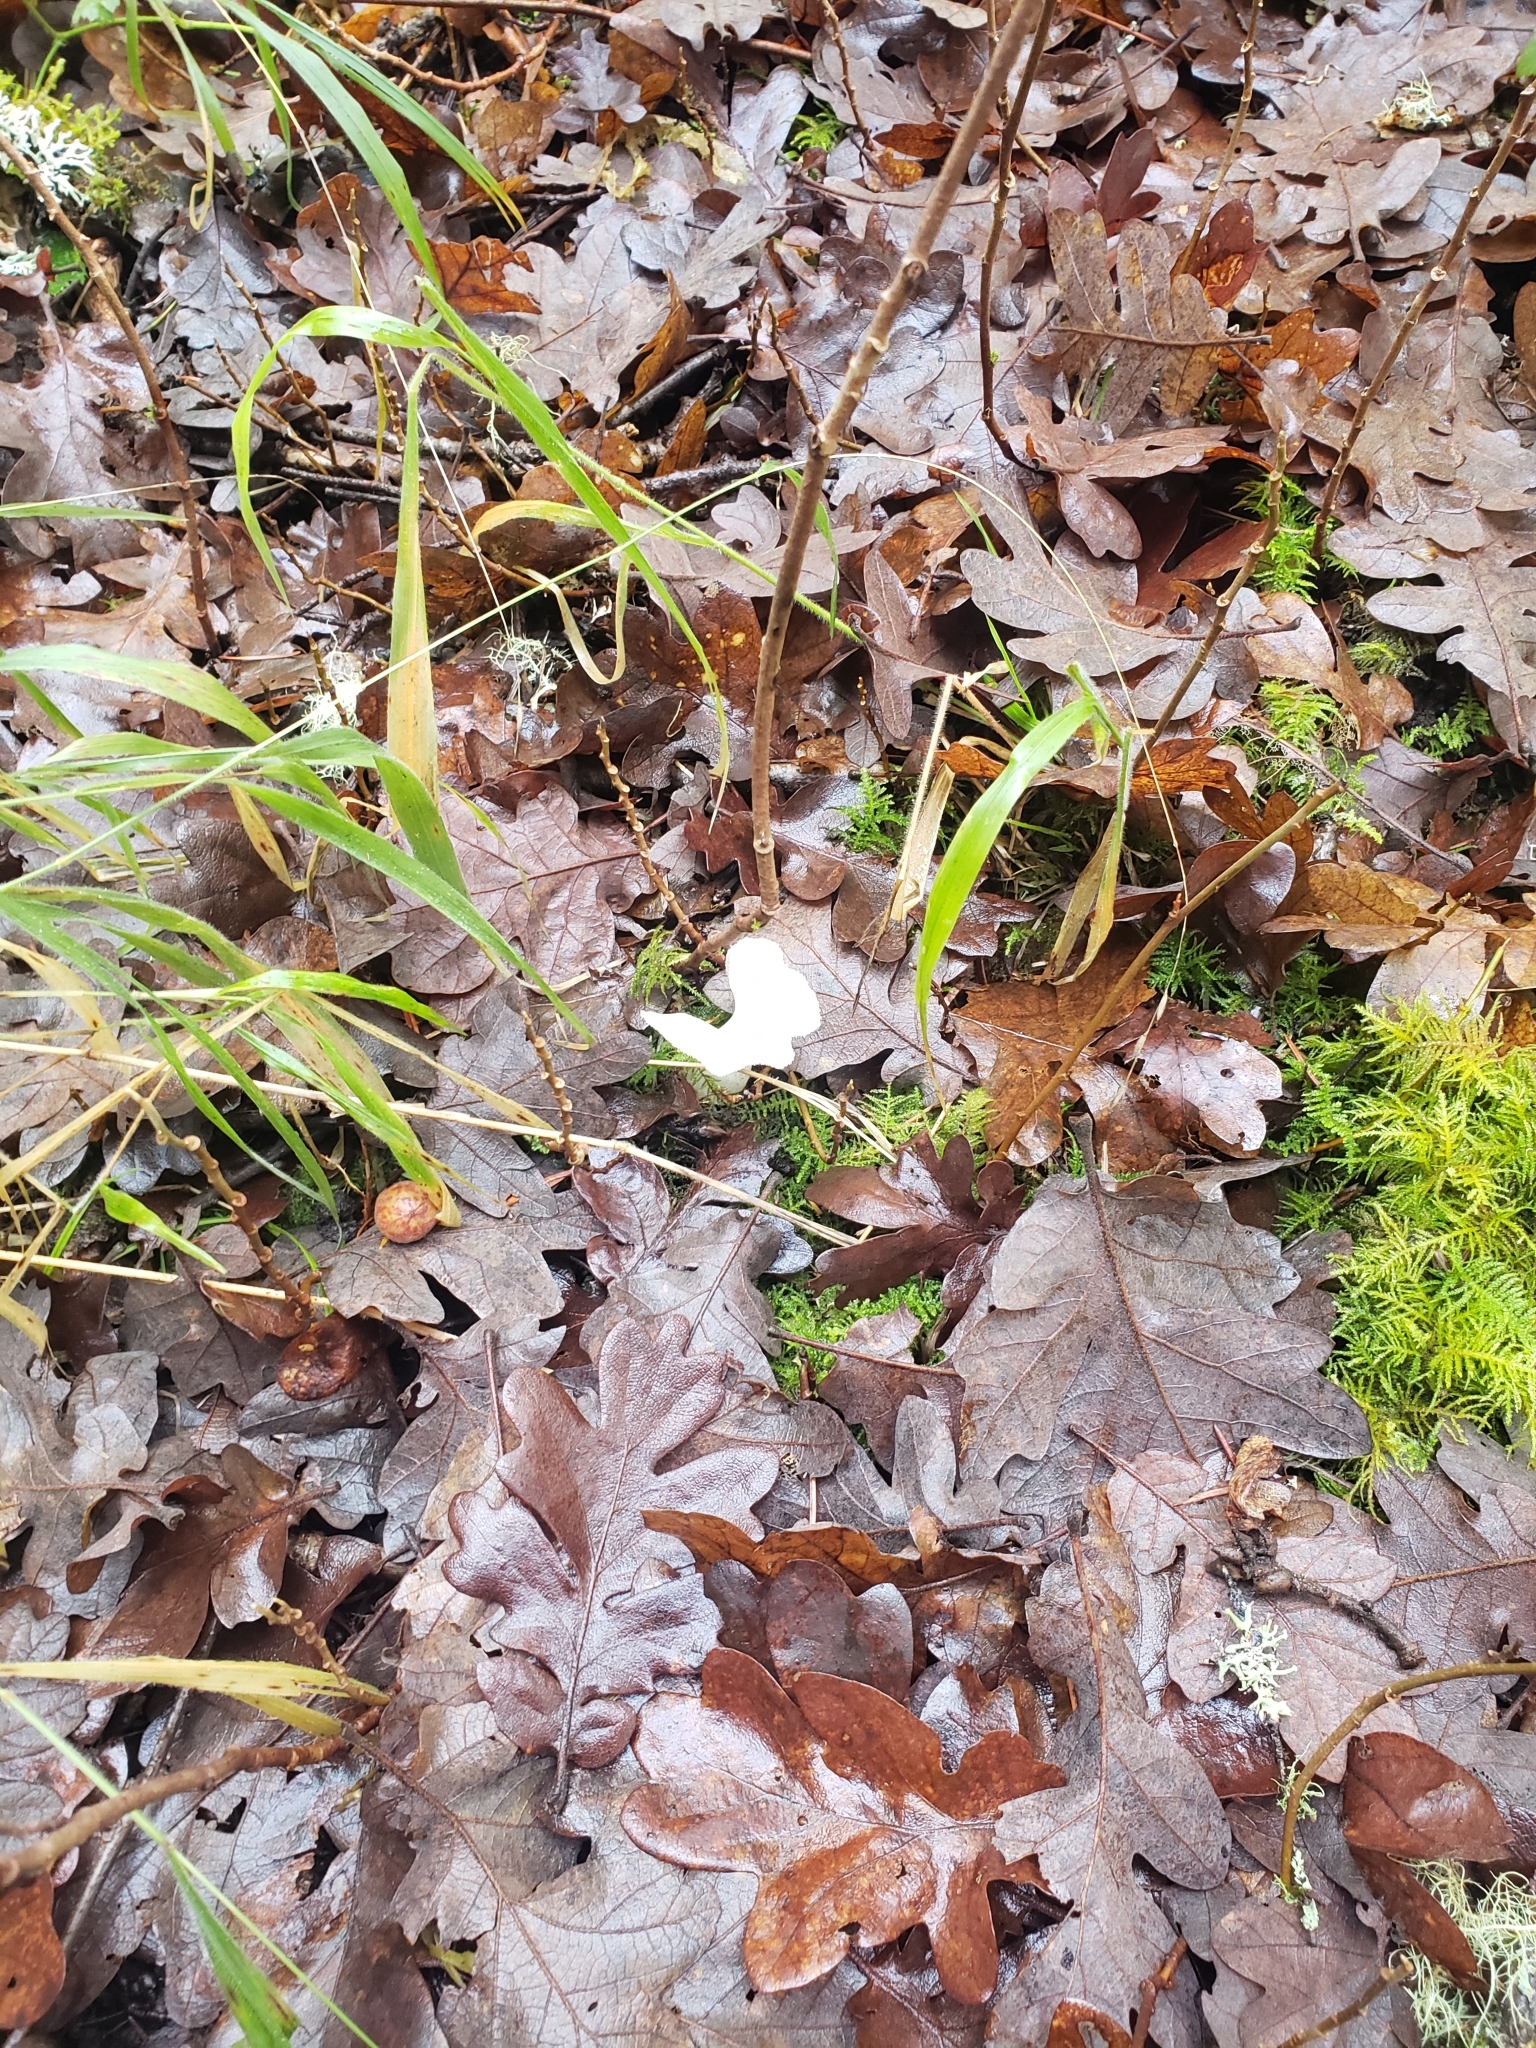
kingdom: Fungi
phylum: Basidiomycota
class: Agaricomycetes
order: Auriculariales
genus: Pseudohydnum
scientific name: Pseudohydnum gelatinosum
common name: Jelly tongue
